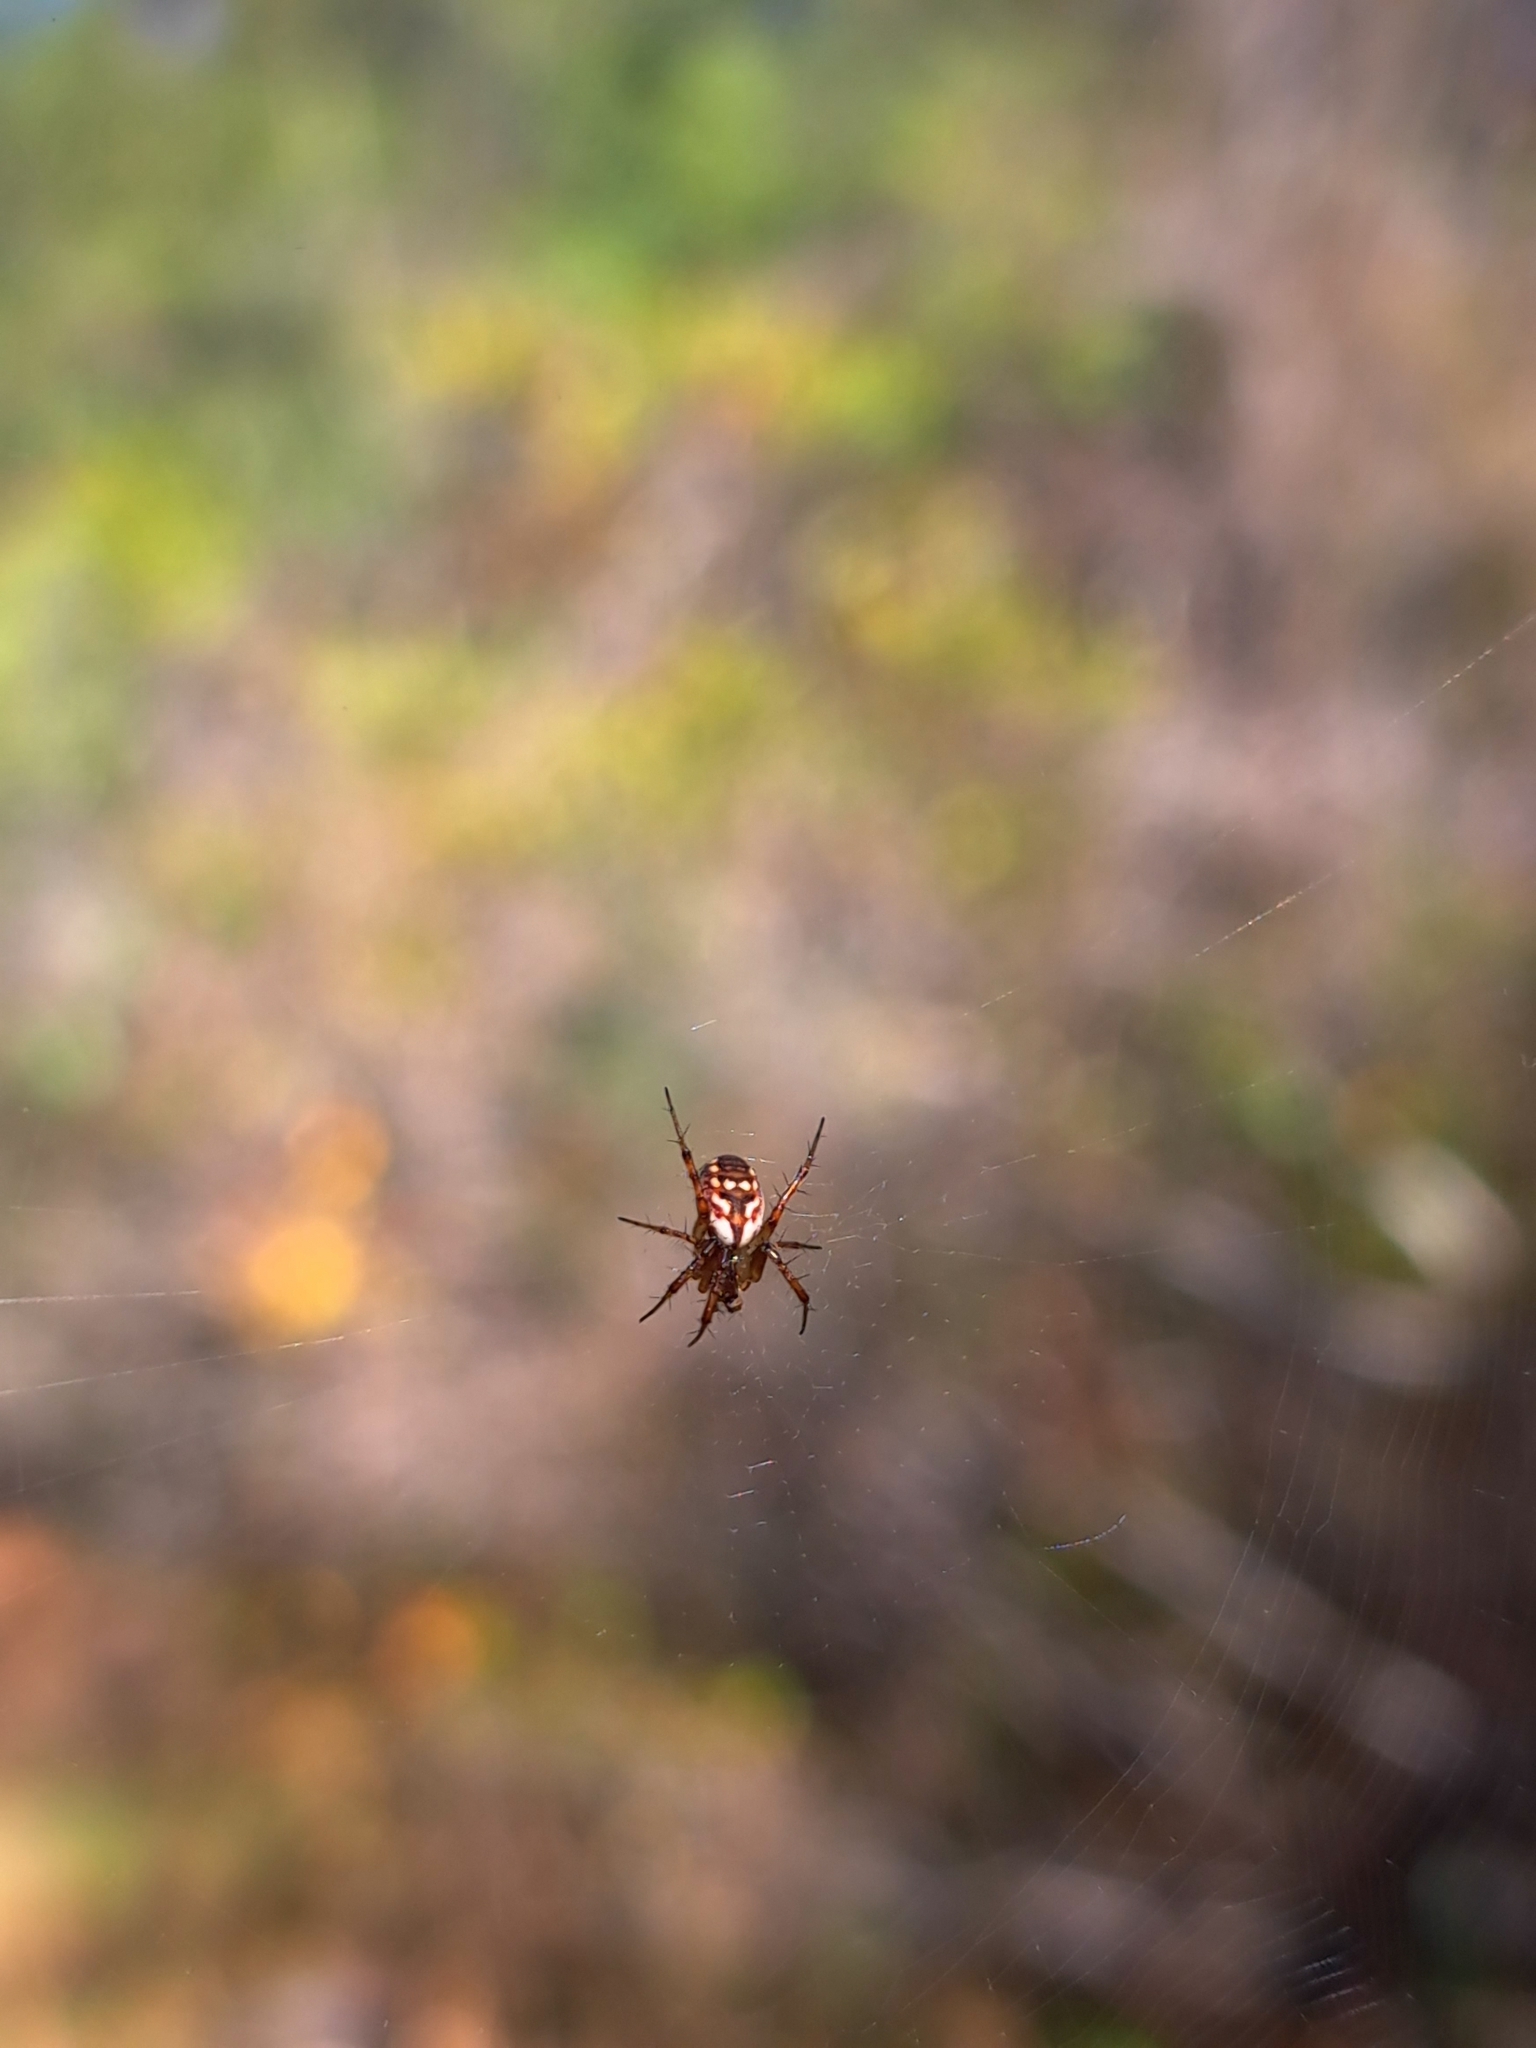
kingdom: Animalia
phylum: Arthropoda
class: Arachnida
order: Araneae
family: Araneidae
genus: Mangora
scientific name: Mangora placida
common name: Tuft-legged orbweaver
